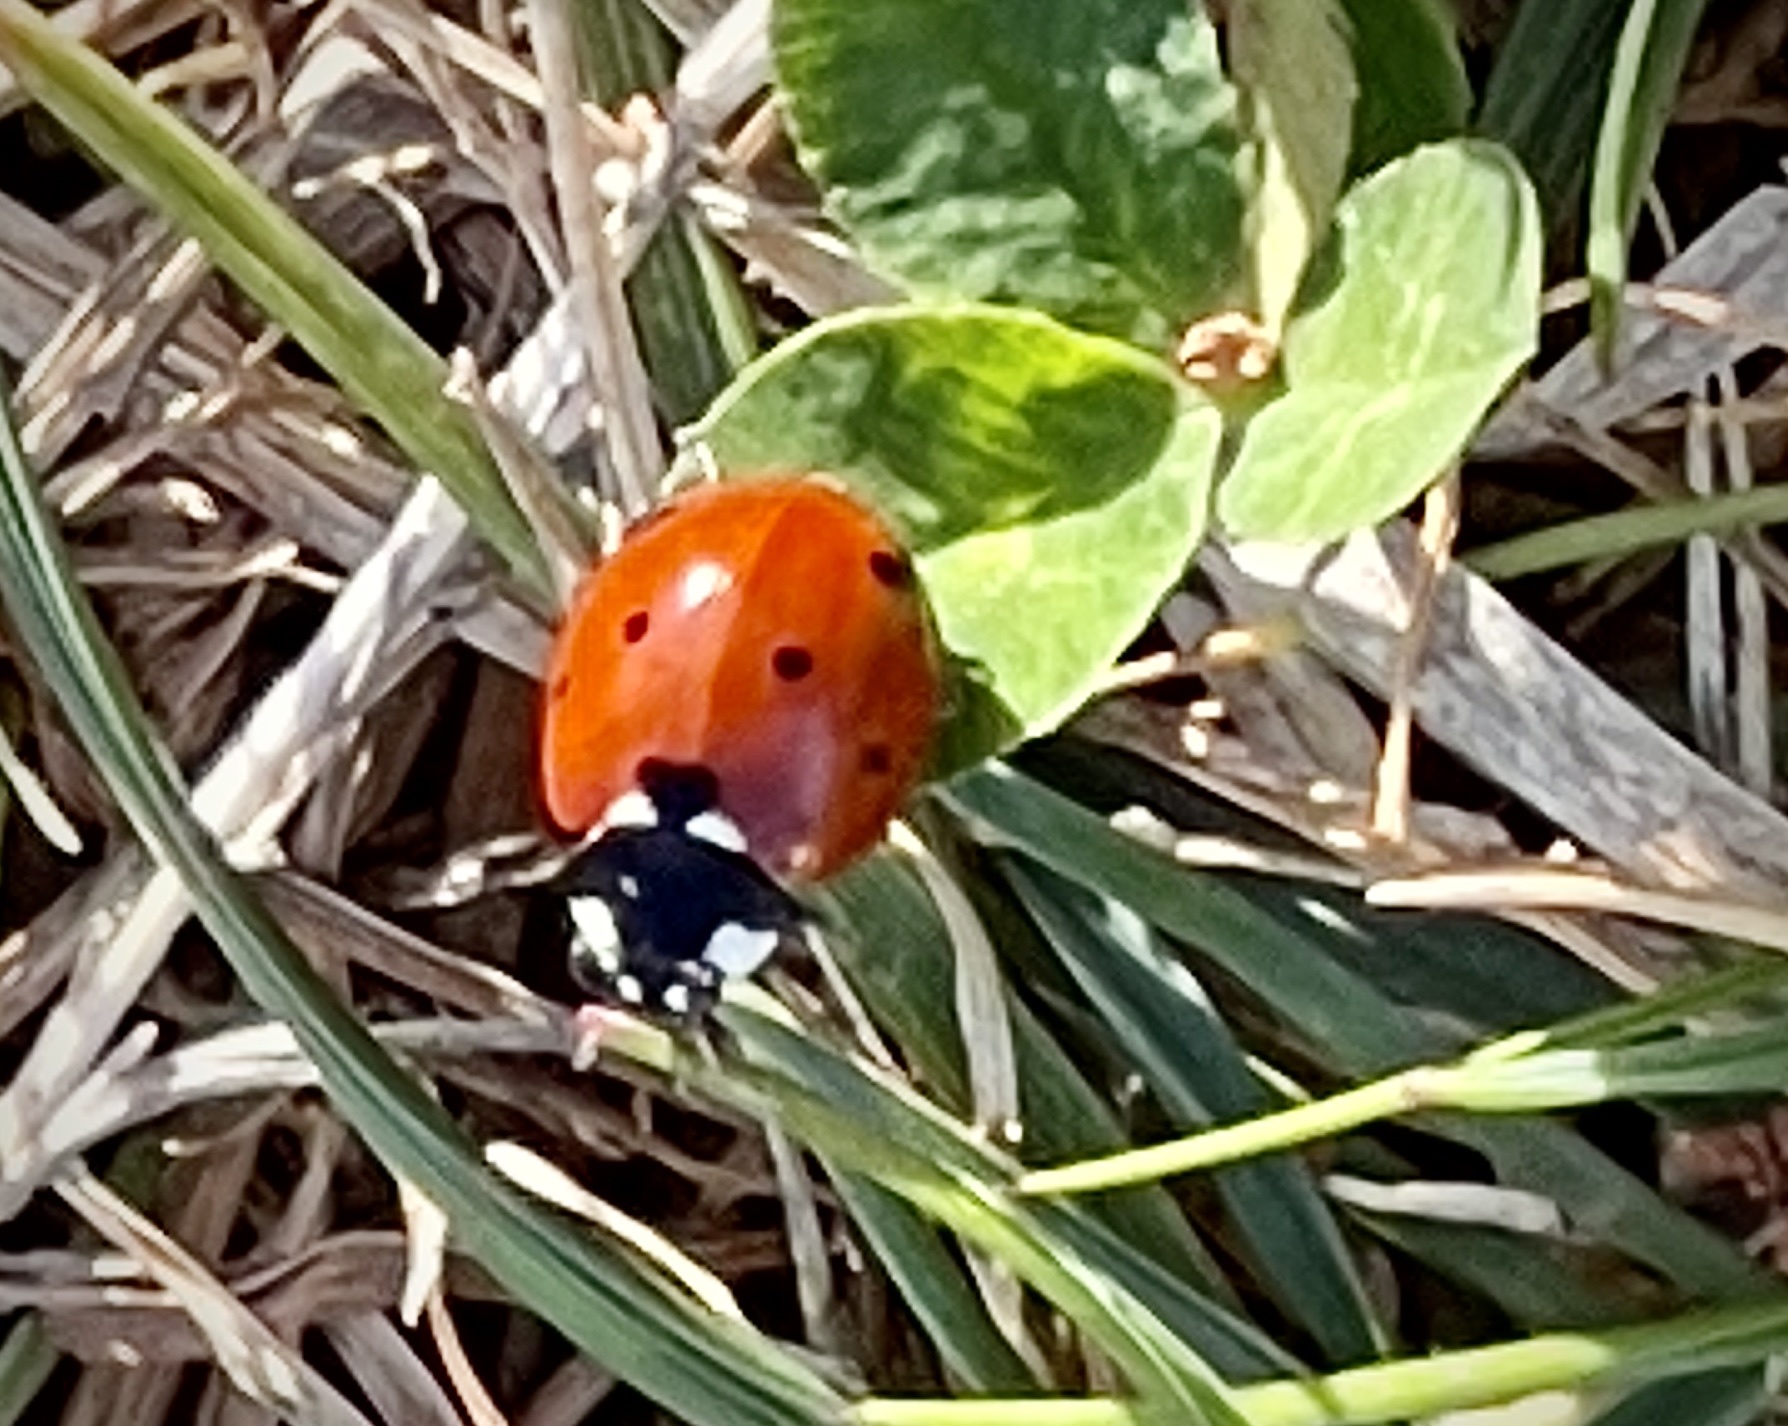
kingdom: Animalia
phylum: Arthropoda
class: Insecta
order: Coleoptera
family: Coccinellidae
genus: Coccinella
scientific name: Coccinella septempunctata
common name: Sevenspotted lady beetle
